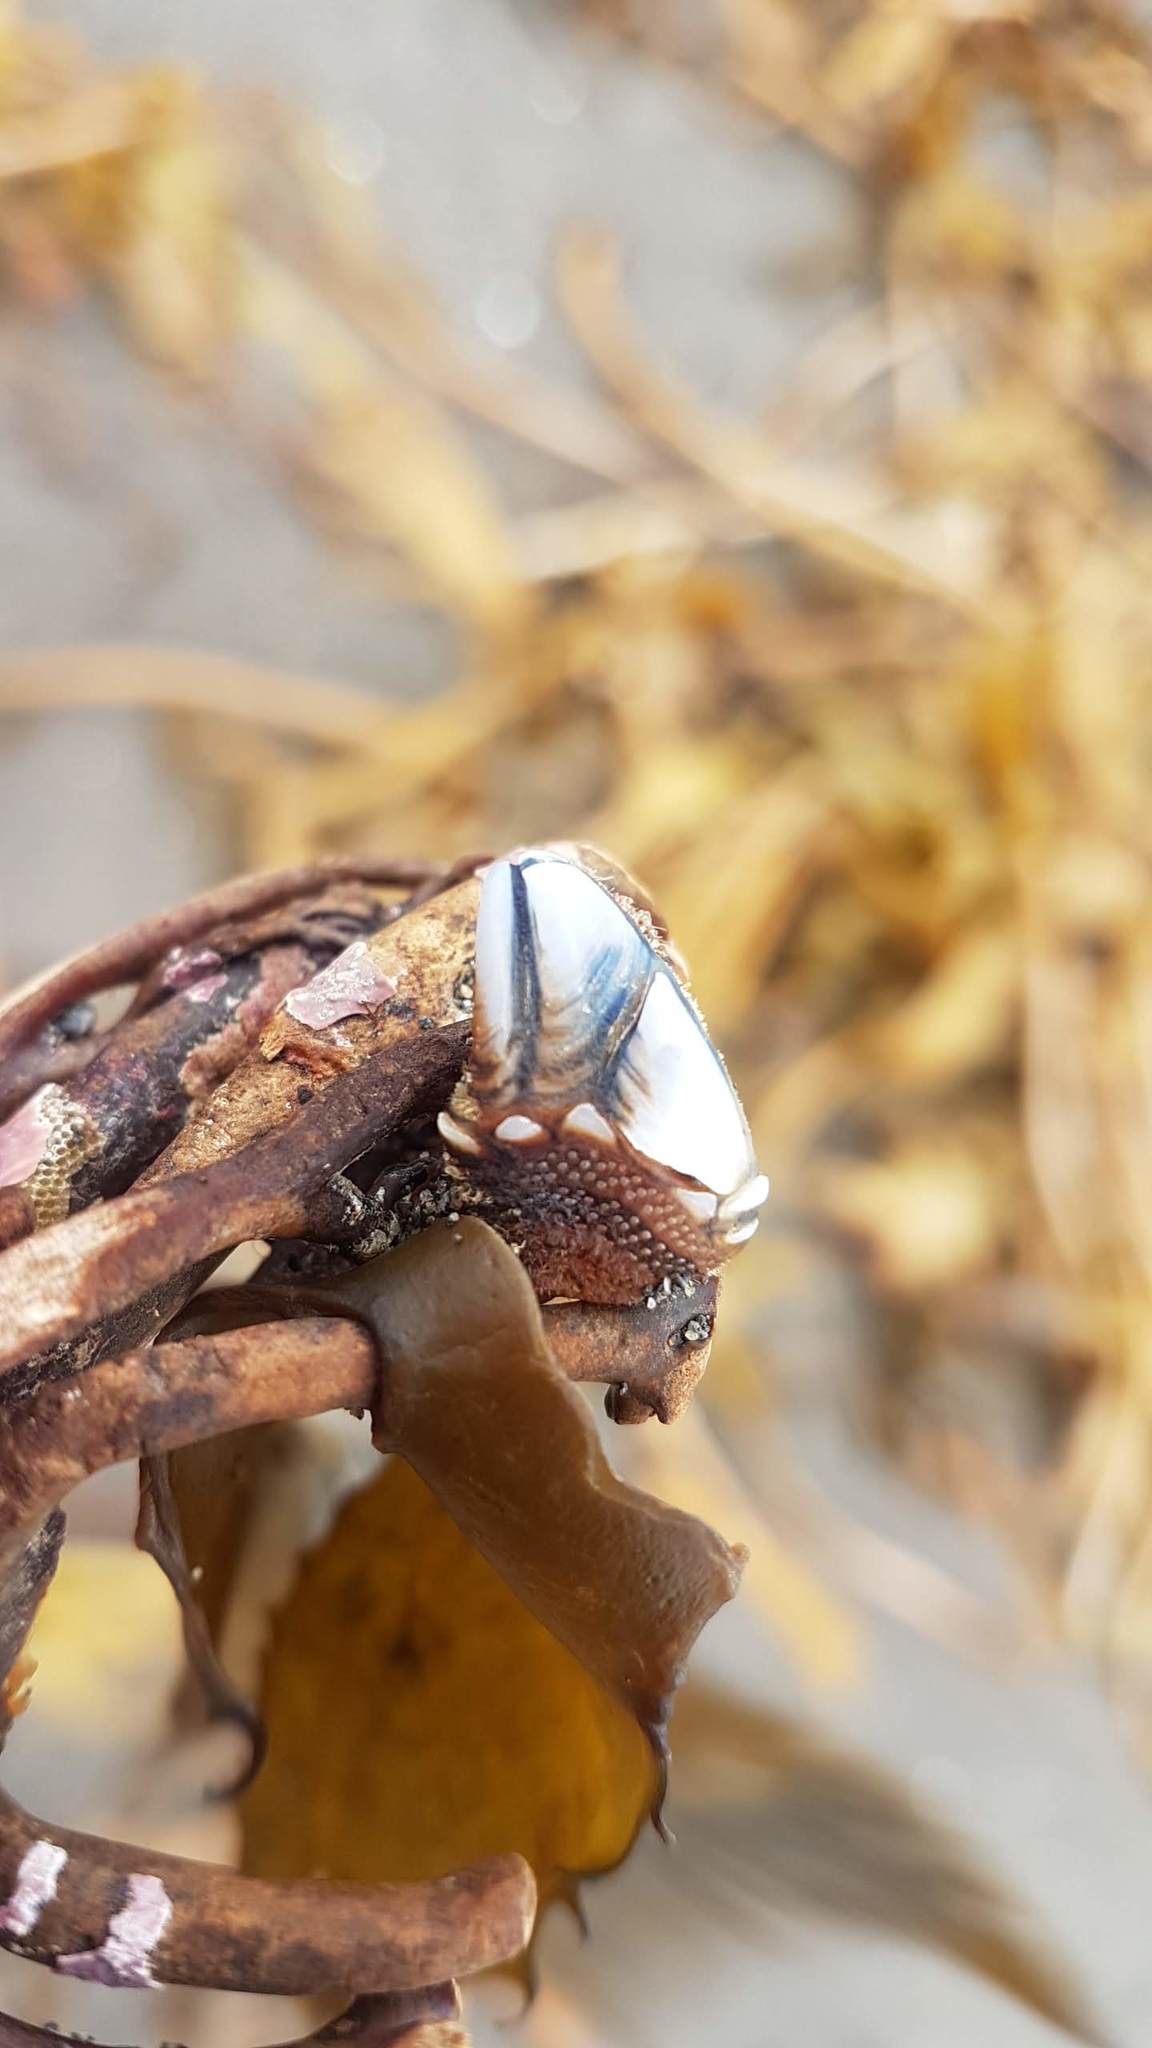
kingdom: Animalia
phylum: Arthropoda
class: Maxillopoda
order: Pedunculata
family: Calanticidae
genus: Calantica
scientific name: Calantica villosa
